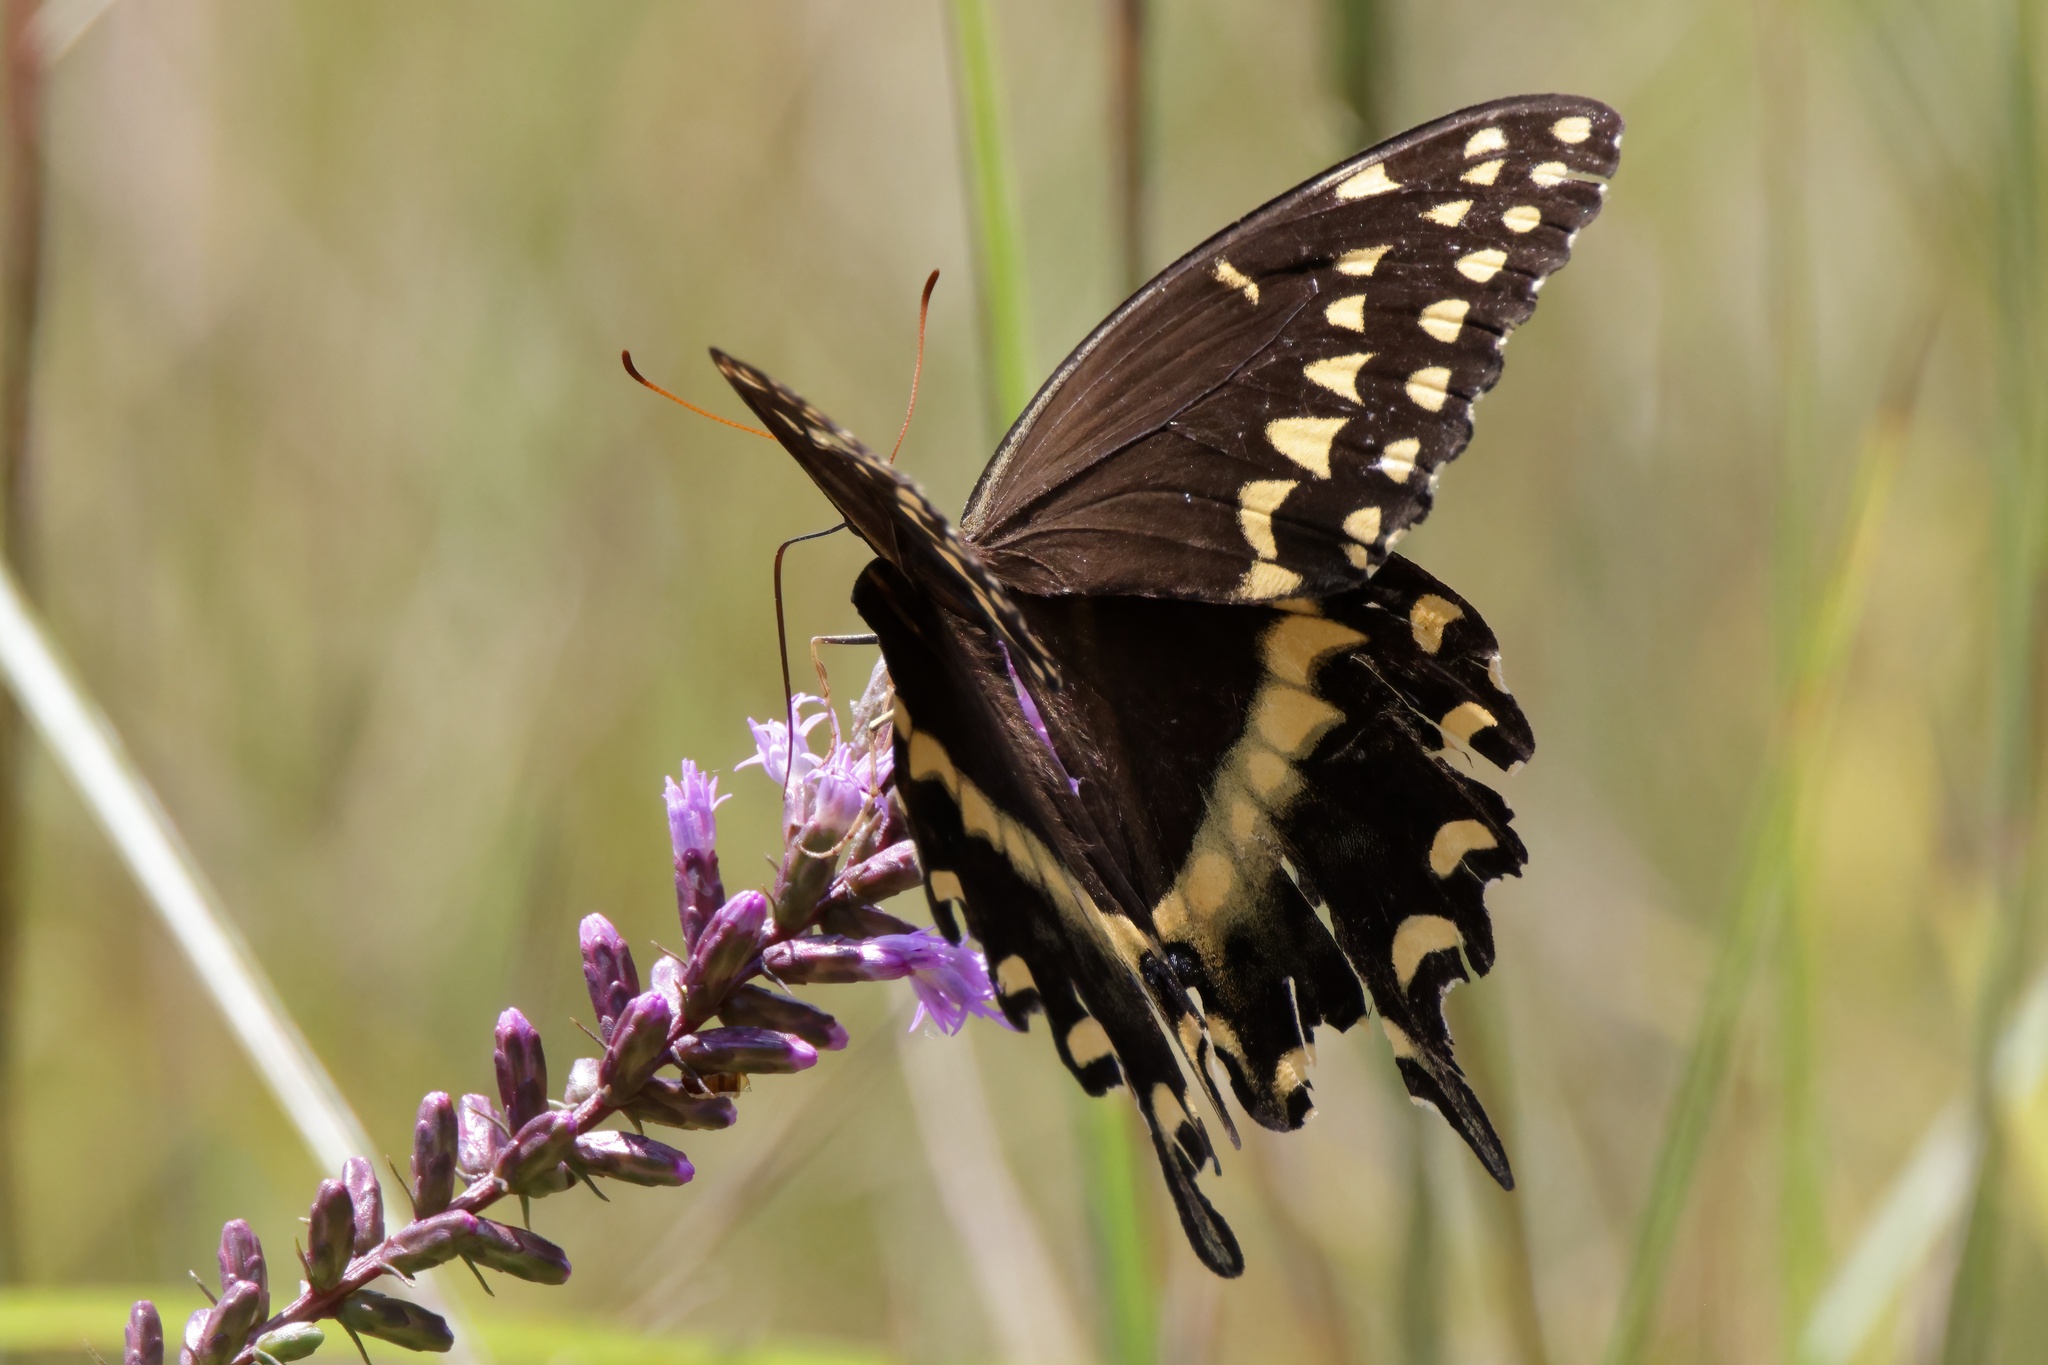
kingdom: Animalia
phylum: Arthropoda
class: Insecta
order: Lepidoptera
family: Papilionidae
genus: Papilio
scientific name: Papilio palamedes
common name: Palamedes swallowtail
